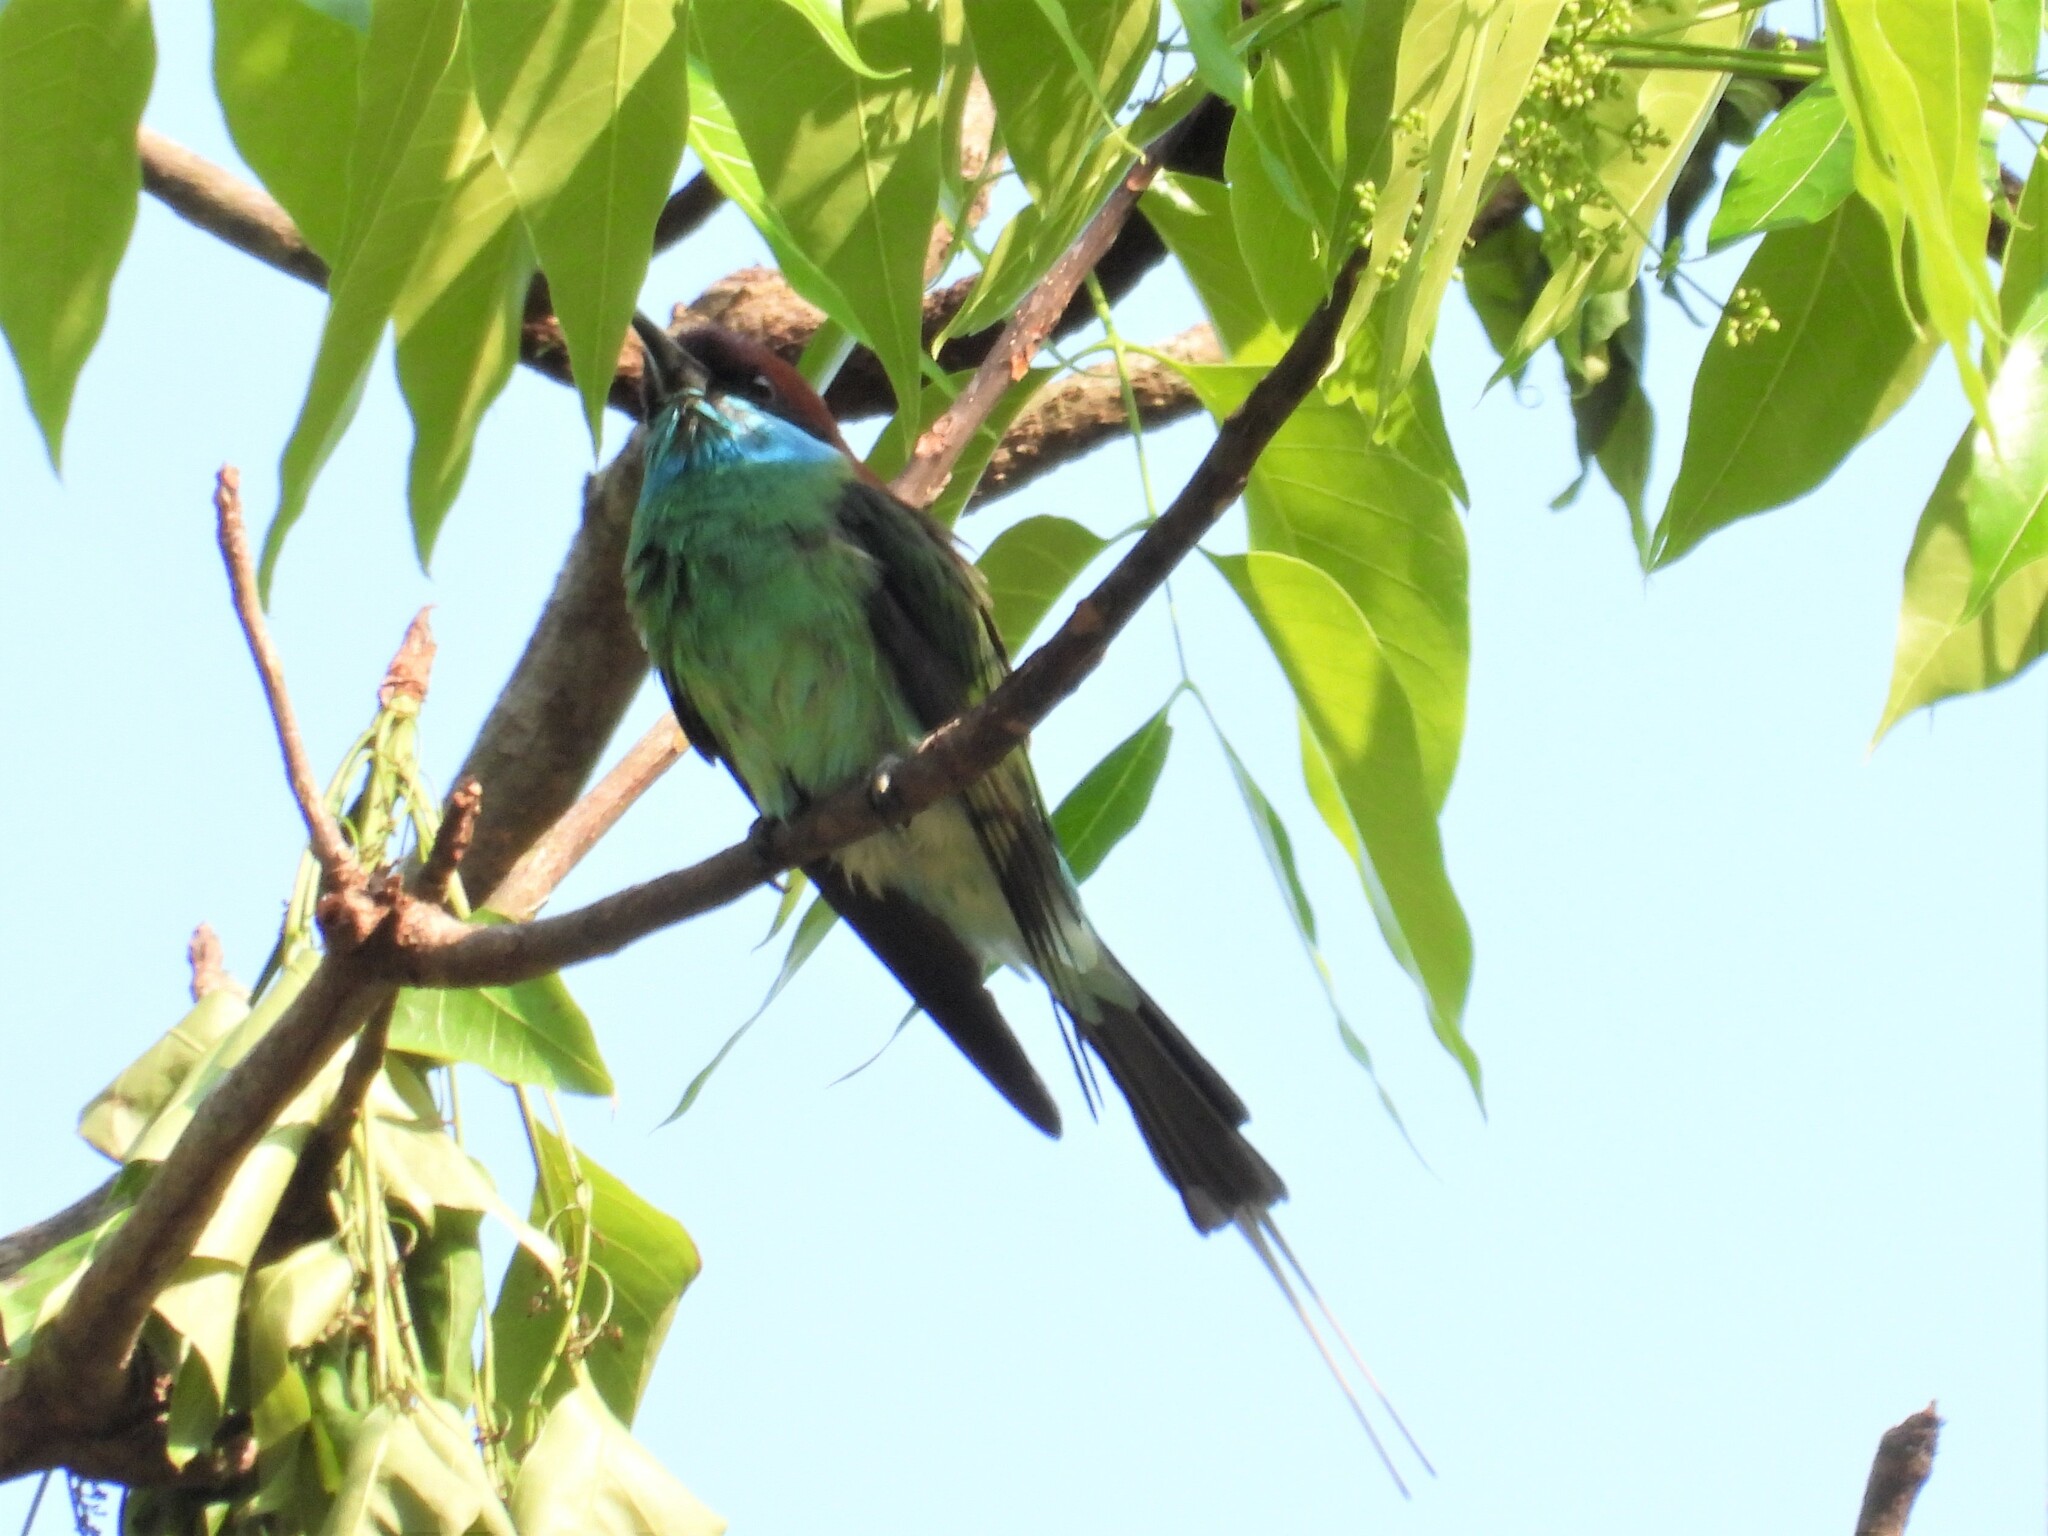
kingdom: Animalia
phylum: Chordata
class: Aves
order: Coraciiformes
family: Meropidae
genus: Merops
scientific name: Merops viridis
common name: Blue-throated bee-eater
